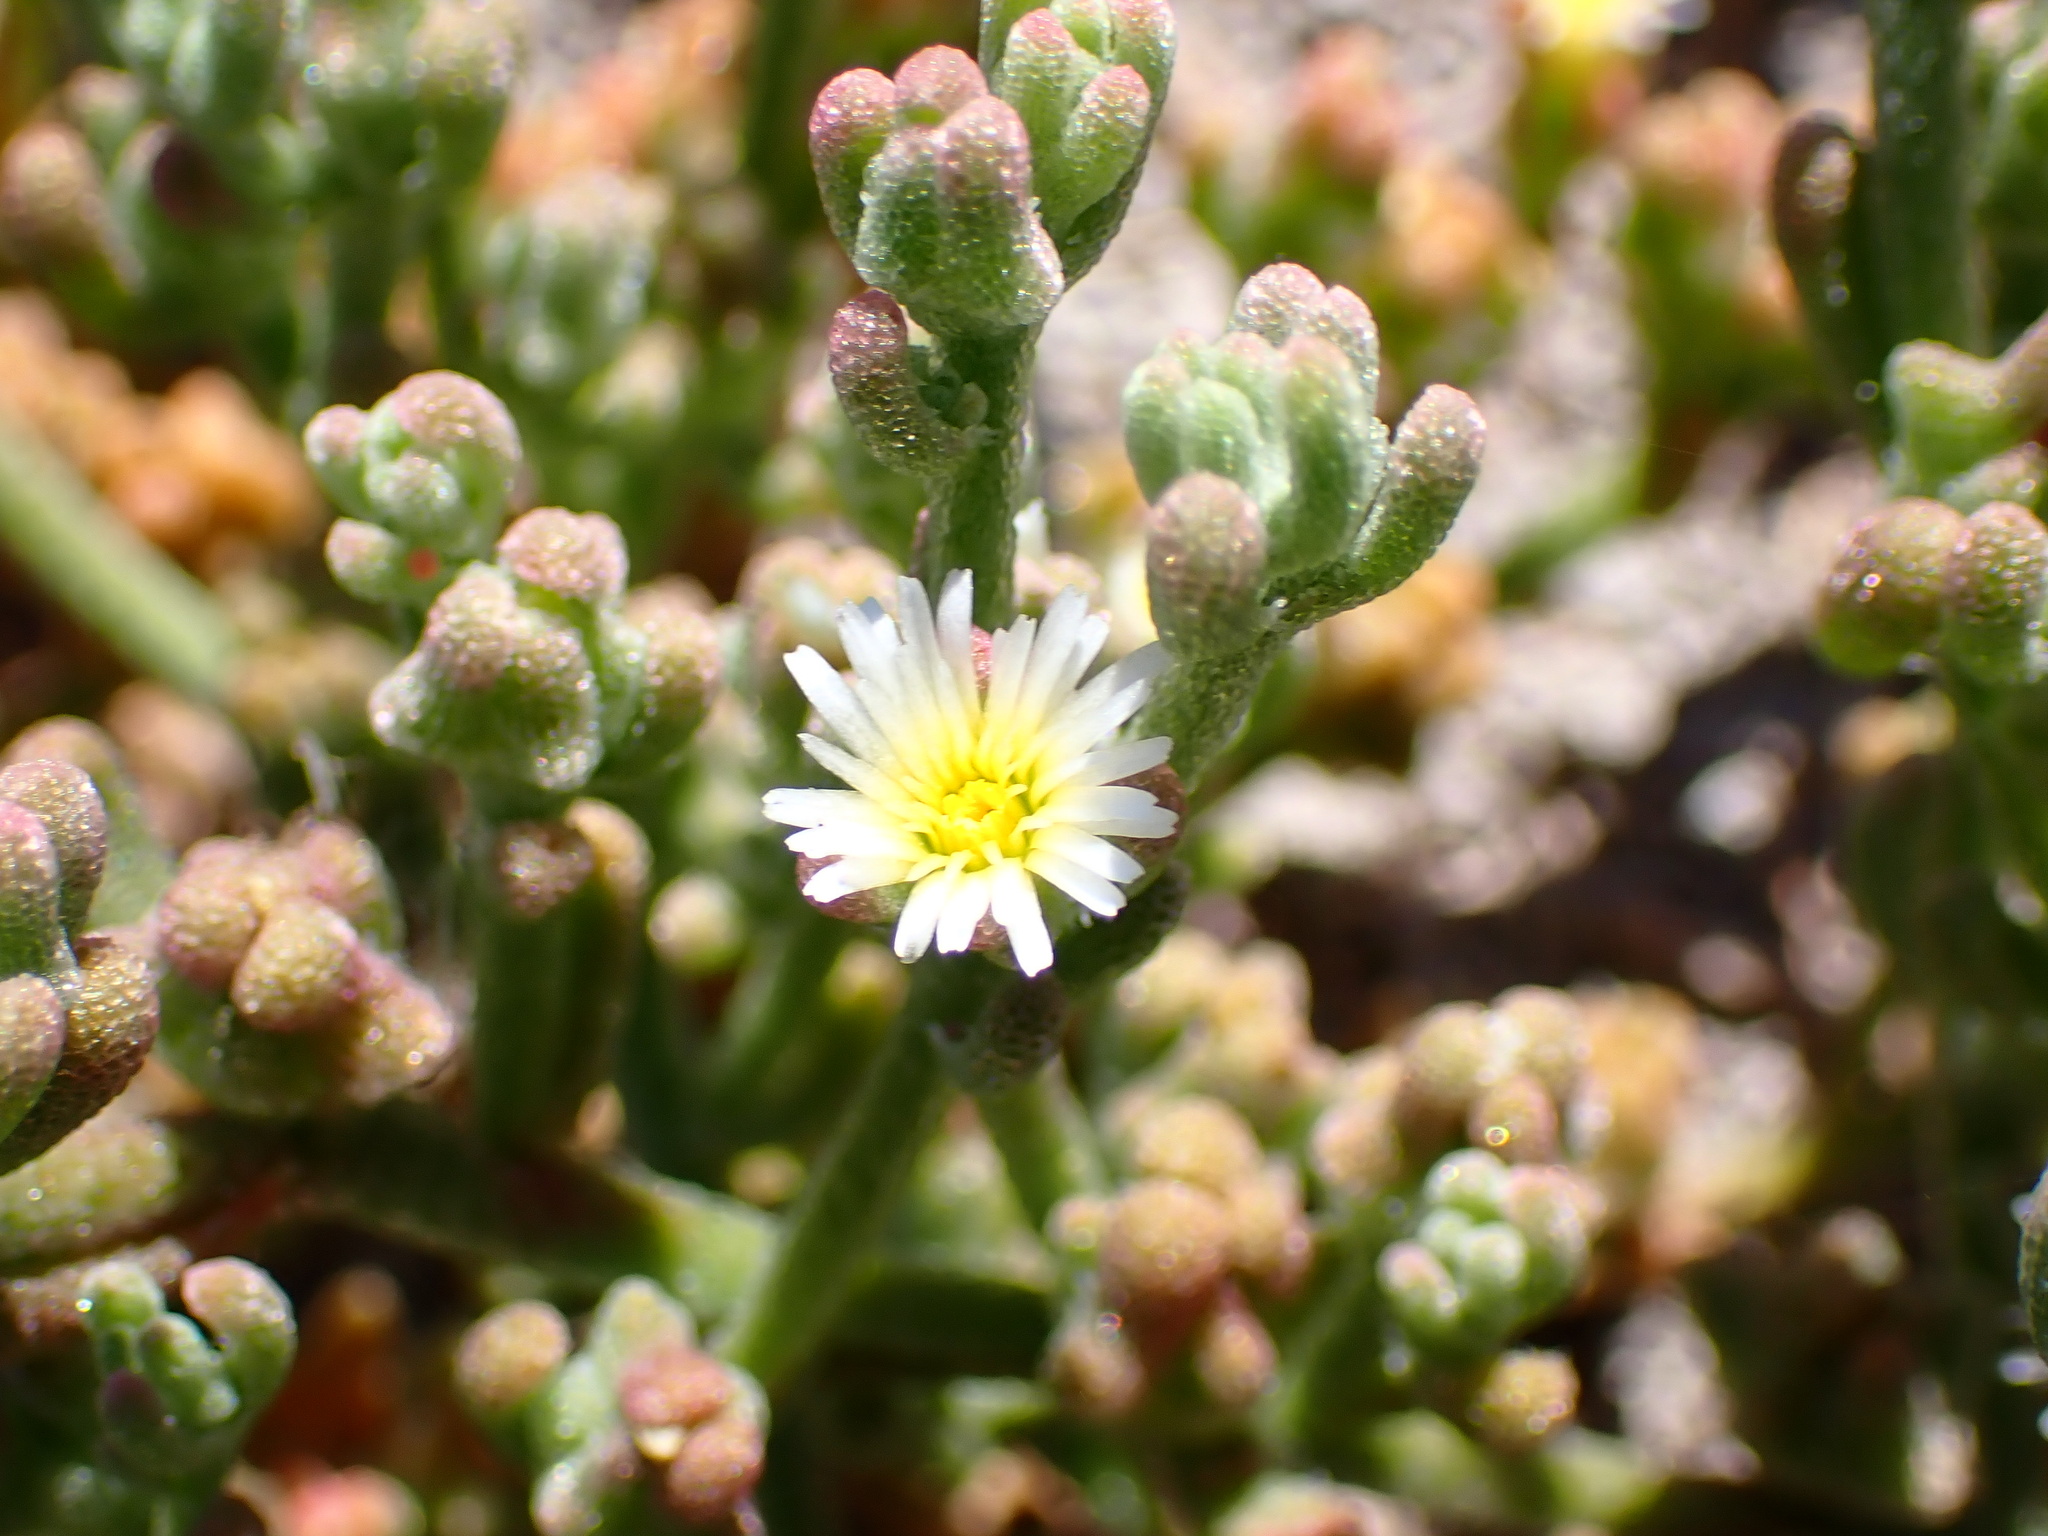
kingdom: Plantae
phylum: Tracheophyta
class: Magnoliopsida
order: Caryophyllales
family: Aizoaceae
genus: Mesembryanthemum
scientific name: Mesembryanthemum nodiflorum
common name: Slenderleaf iceplant
